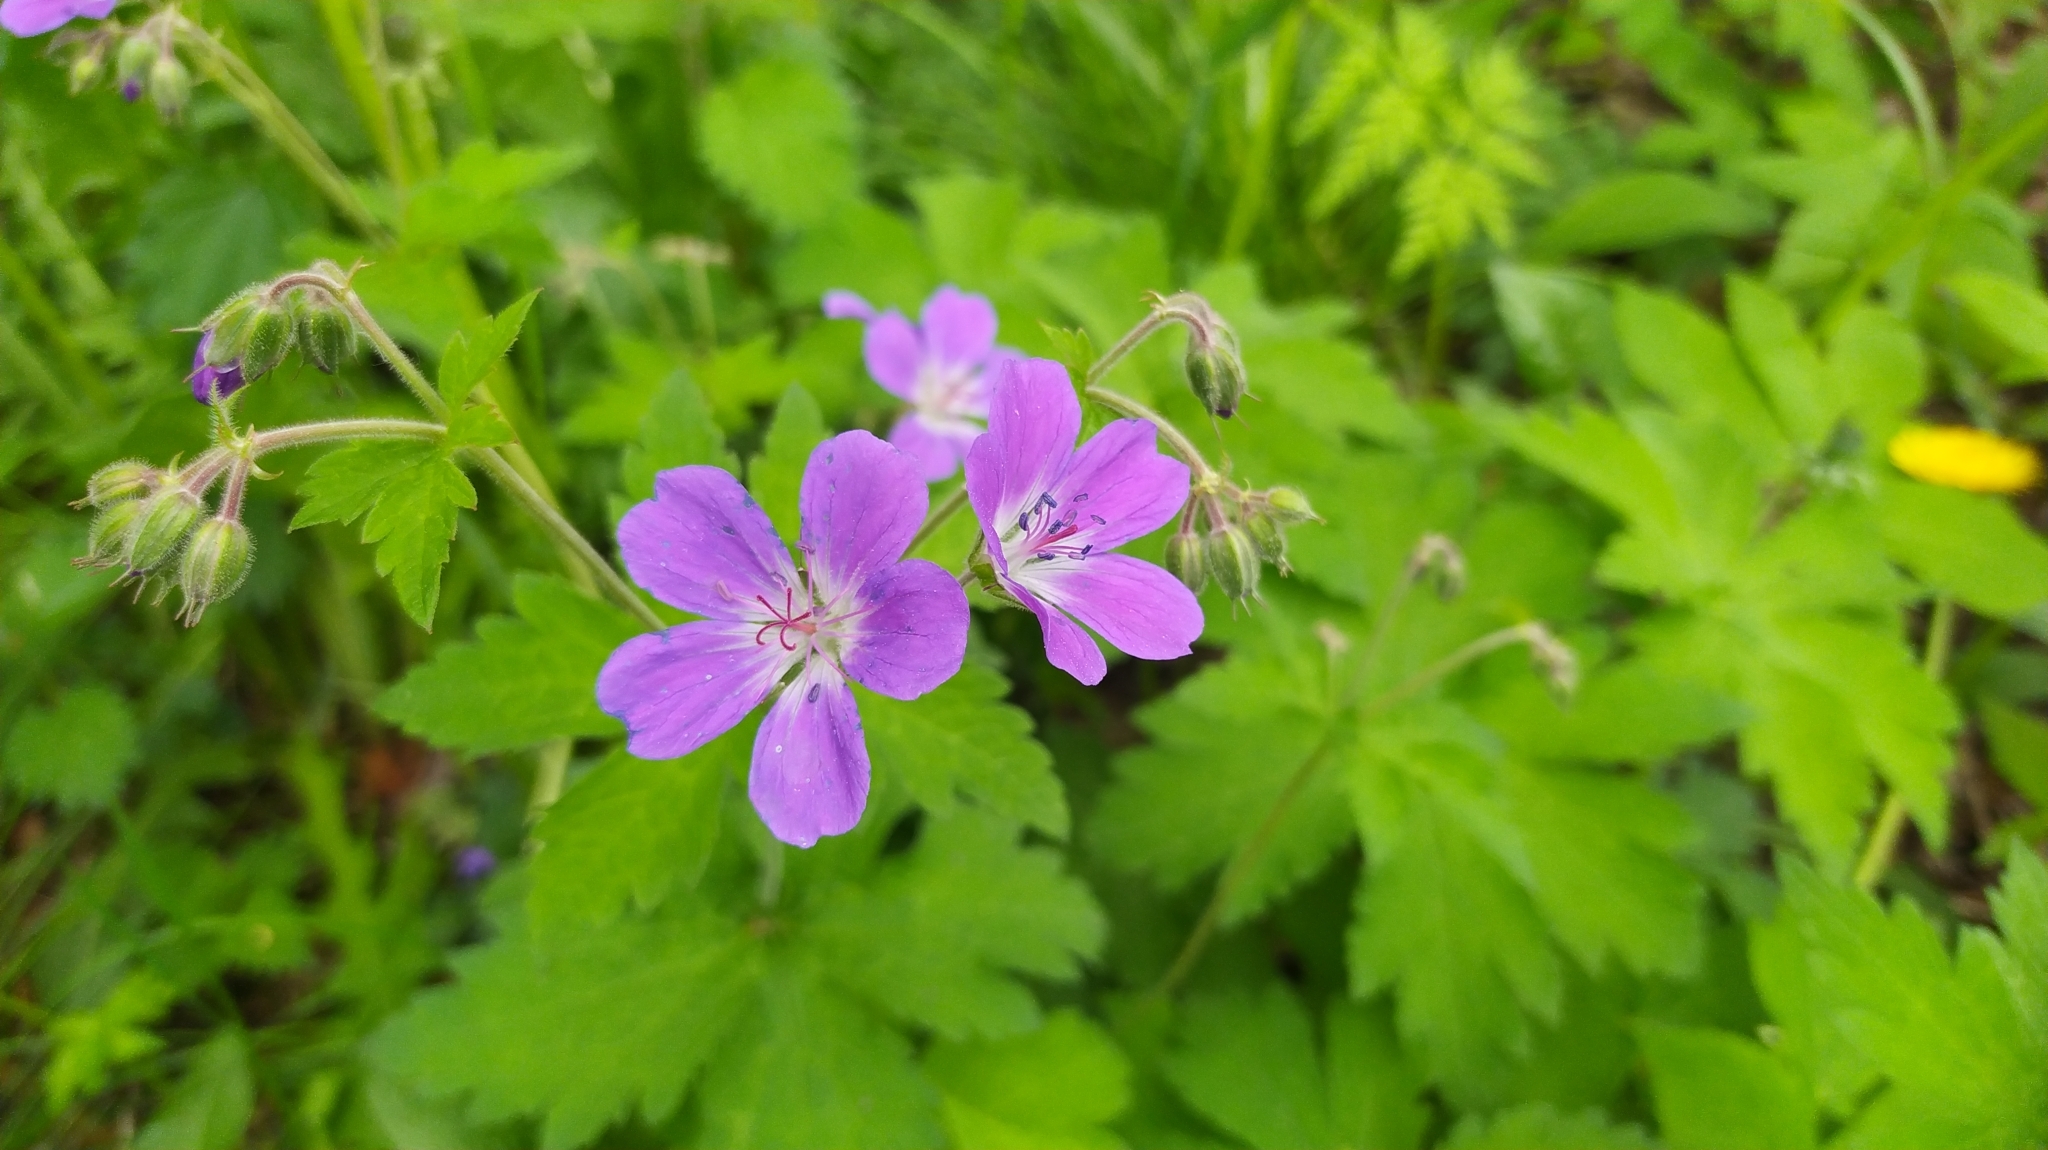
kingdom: Plantae
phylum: Tracheophyta
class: Magnoliopsida
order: Geraniales
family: Geraniaceae
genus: Geranium
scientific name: Geranium sylvaticum
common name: Wood crane's-bill
